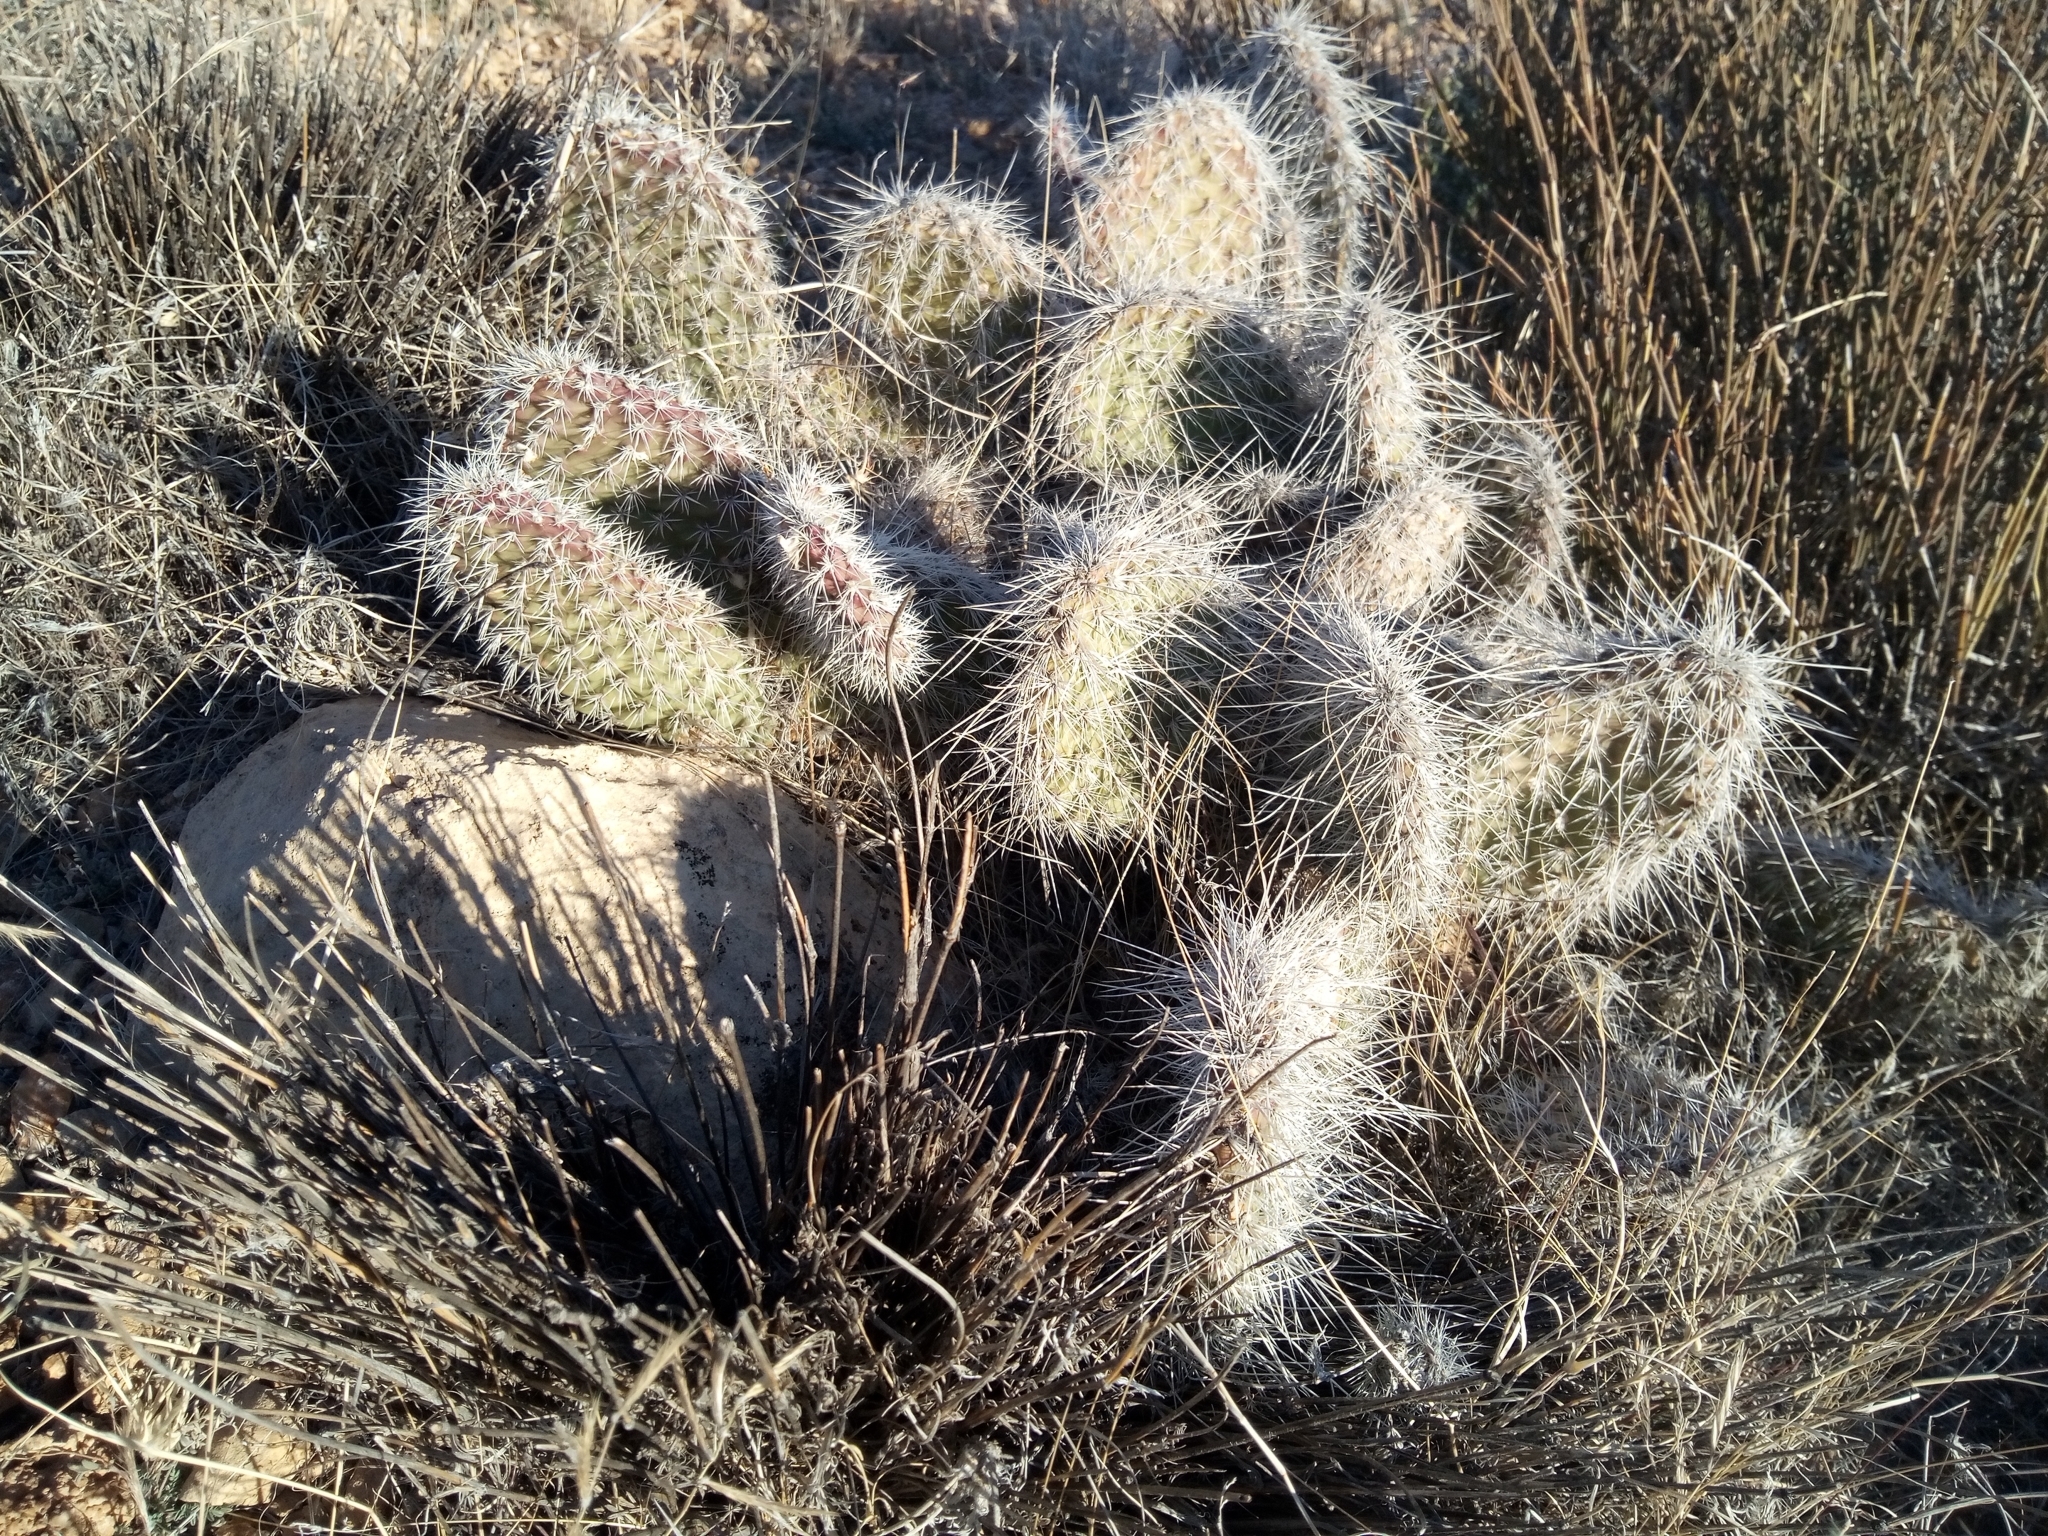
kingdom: Plantae
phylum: Tracheophyta
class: Magnoliopsida
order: Caryophyllales
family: Cactaceae
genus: Opuntia
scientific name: Opuntia polyacantha
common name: Plains prickly-pear
